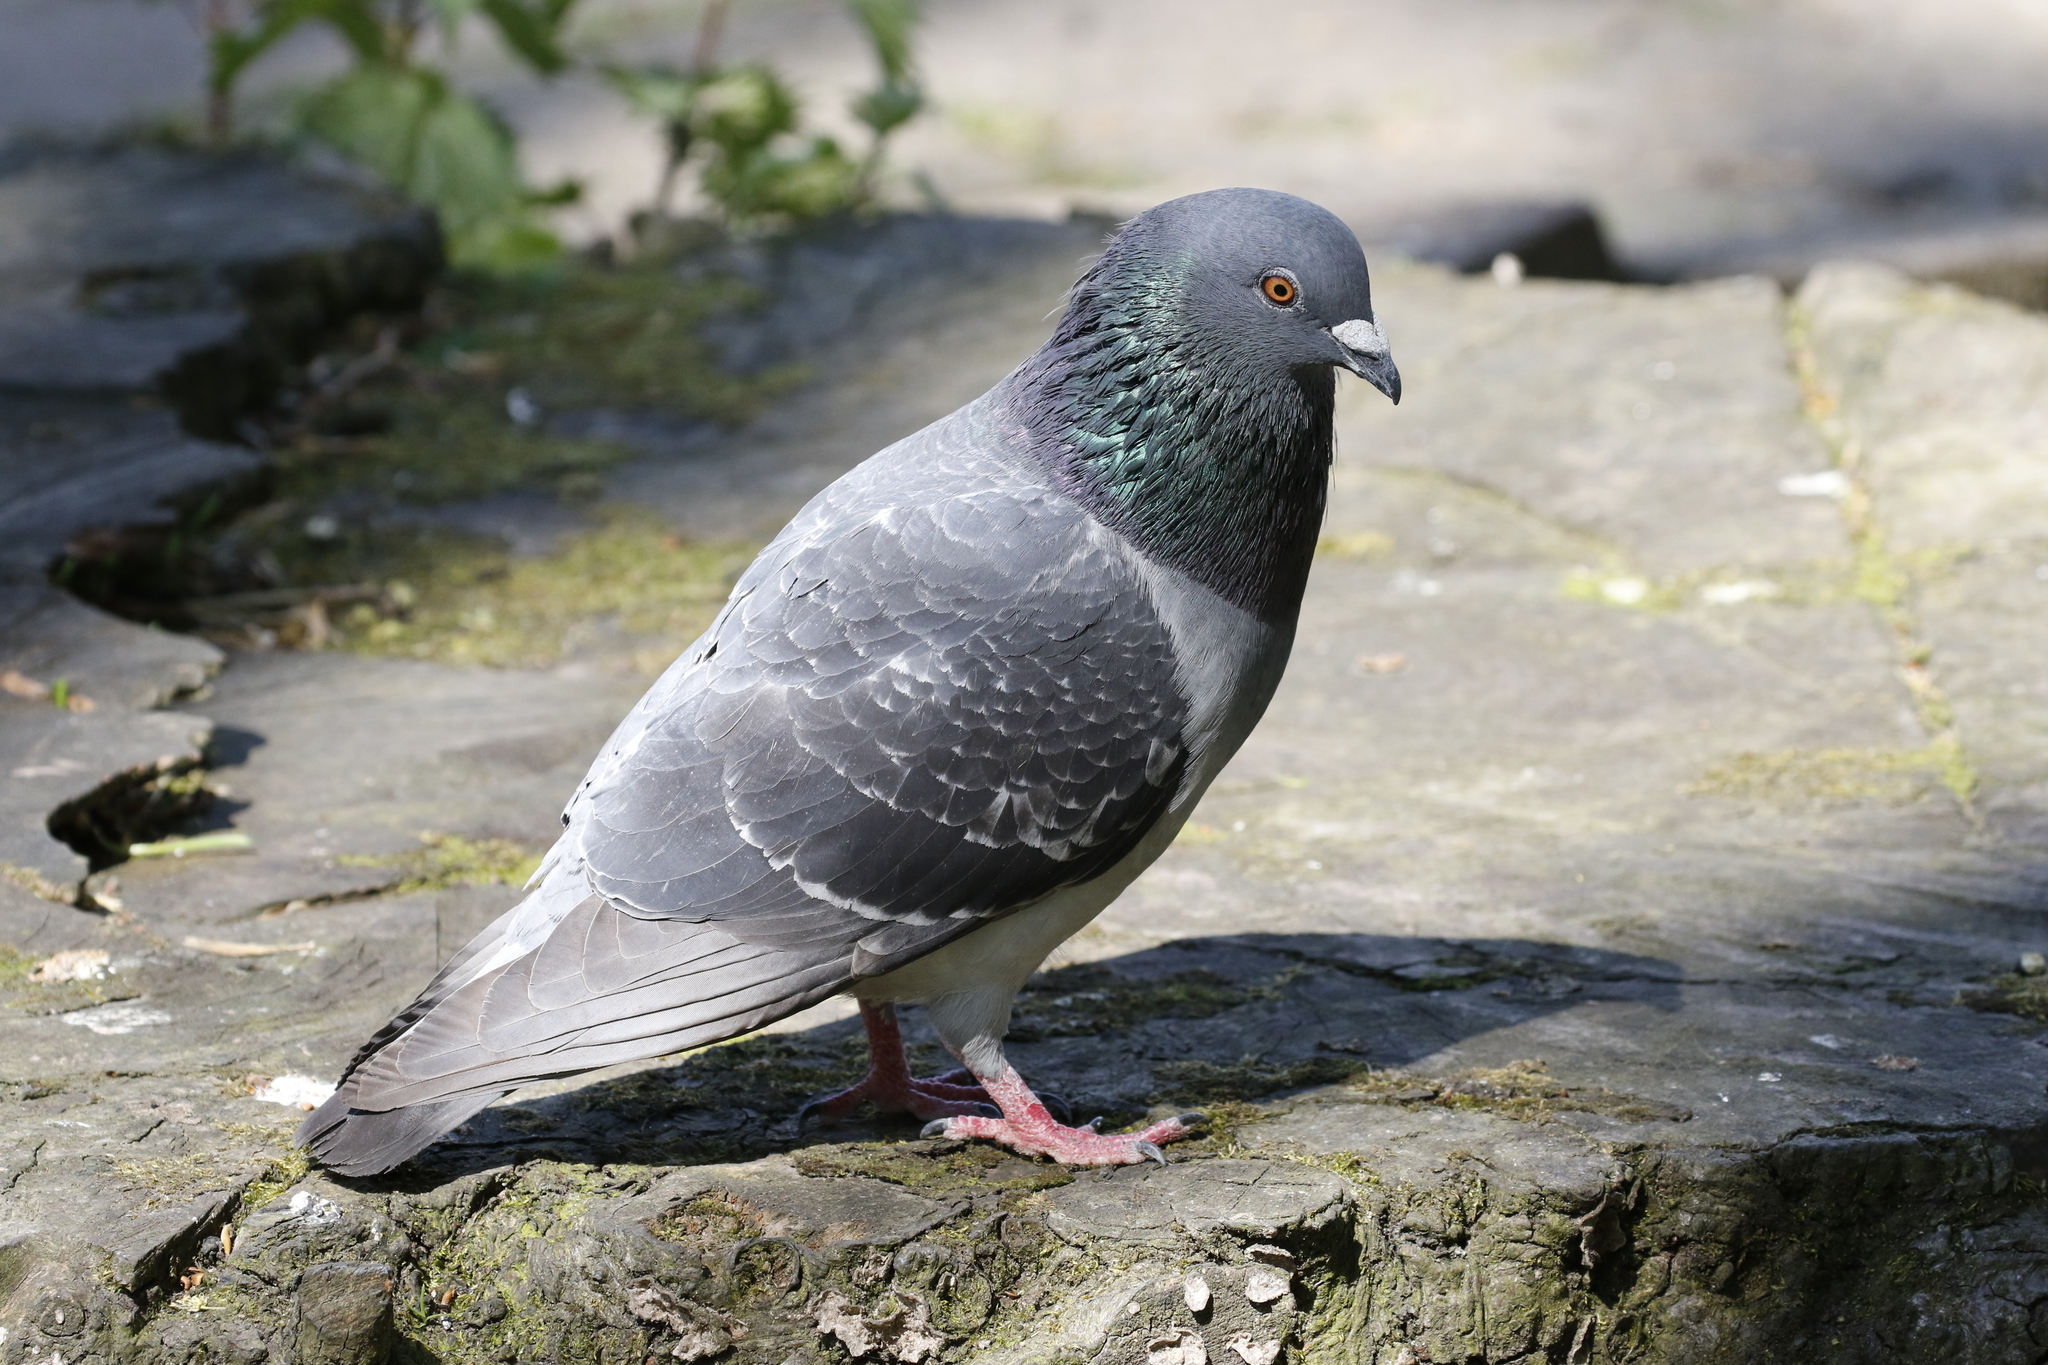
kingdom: Animalia
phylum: Chordata
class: Aves
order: Columbiformes
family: Columbidae
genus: Columba
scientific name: Columba livia
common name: Rock pigeon
